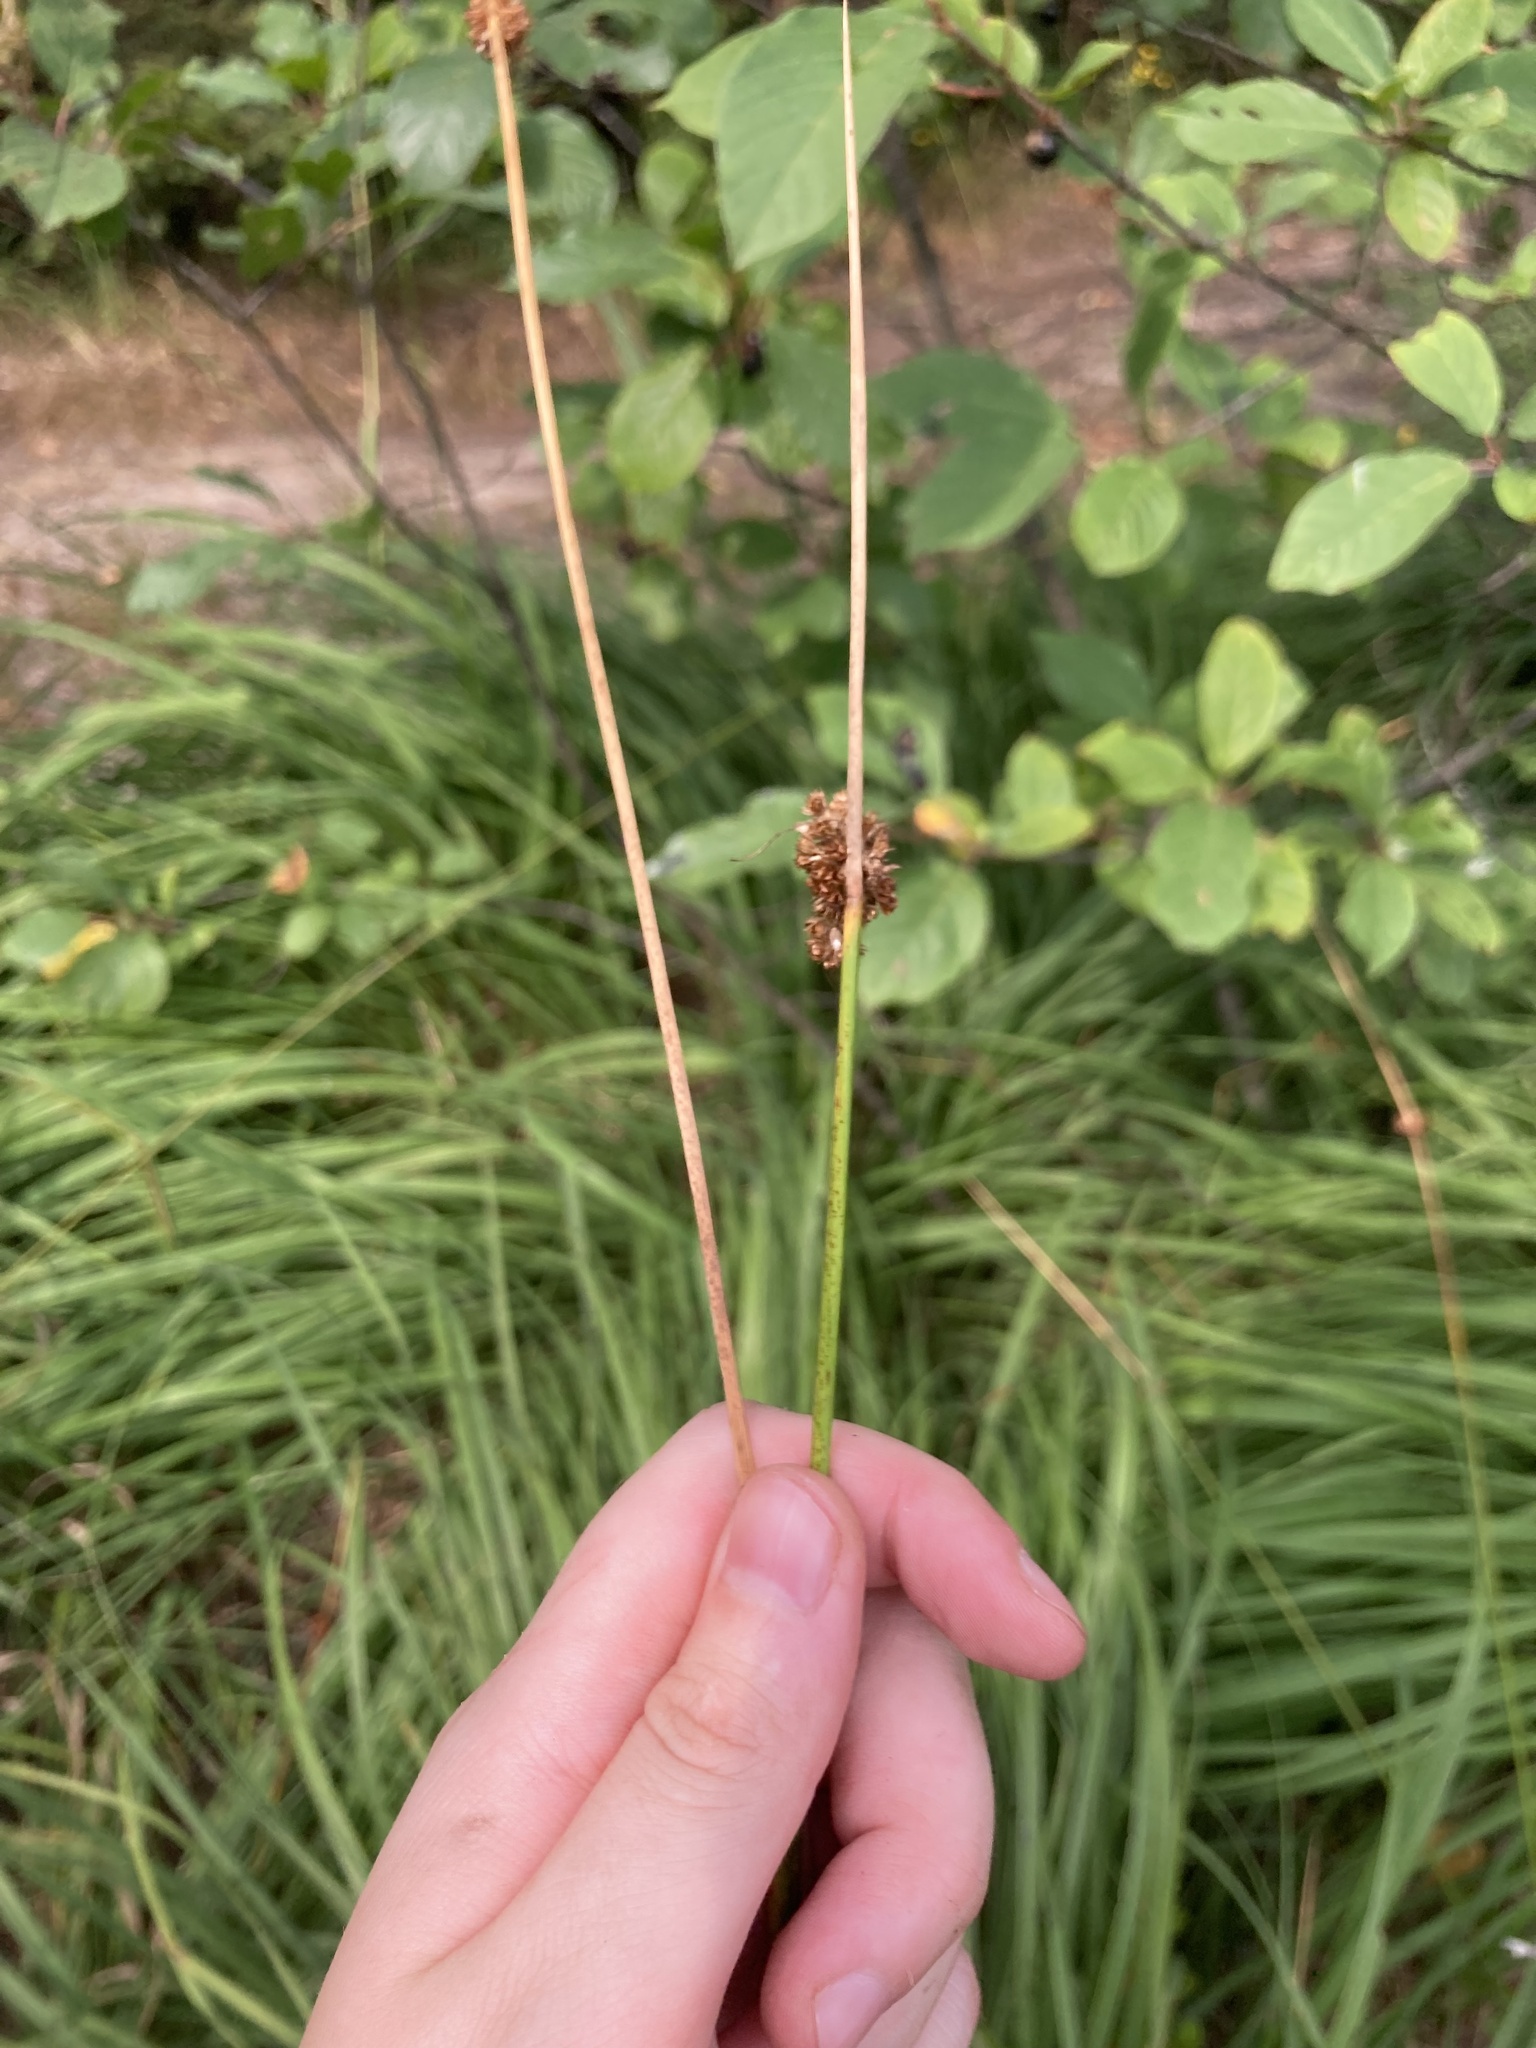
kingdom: Plantae
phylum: Tracheophyta
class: Liliopsida
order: Poales
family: Juncaceae
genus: Juncus
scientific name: Juncus effusus
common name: Soft rush
